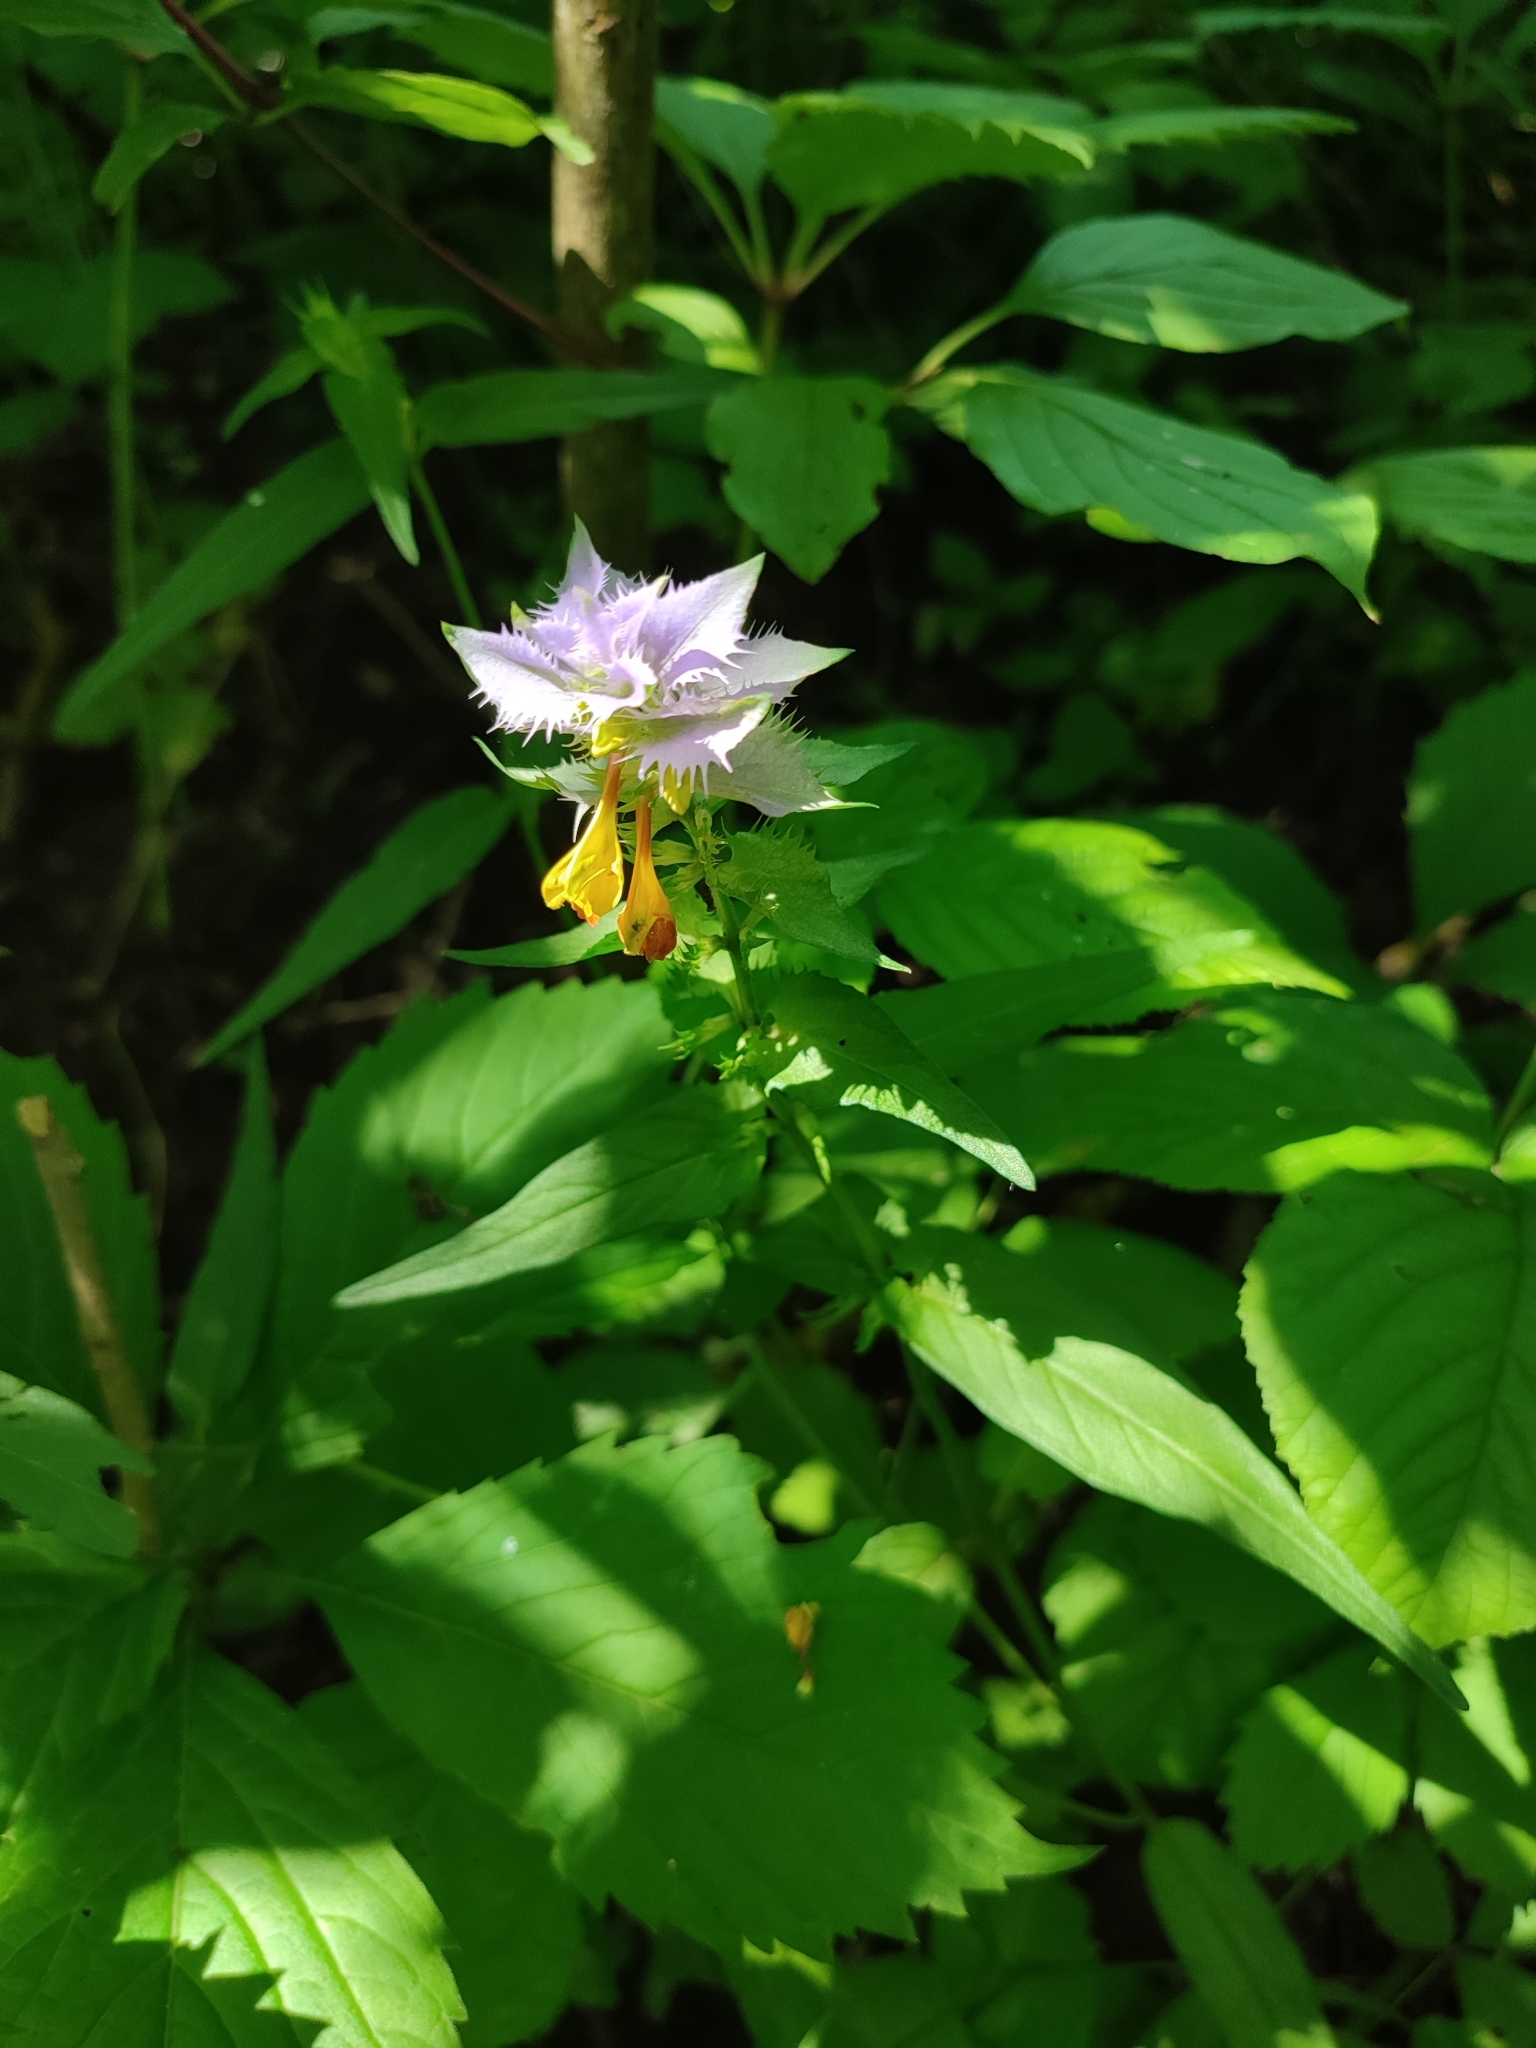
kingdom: Plantae
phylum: Tracheophyta
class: Magnoliopsida
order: Lamiales
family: Orobanchaceae
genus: Melampyrum
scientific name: Melampyrum nemorosum
